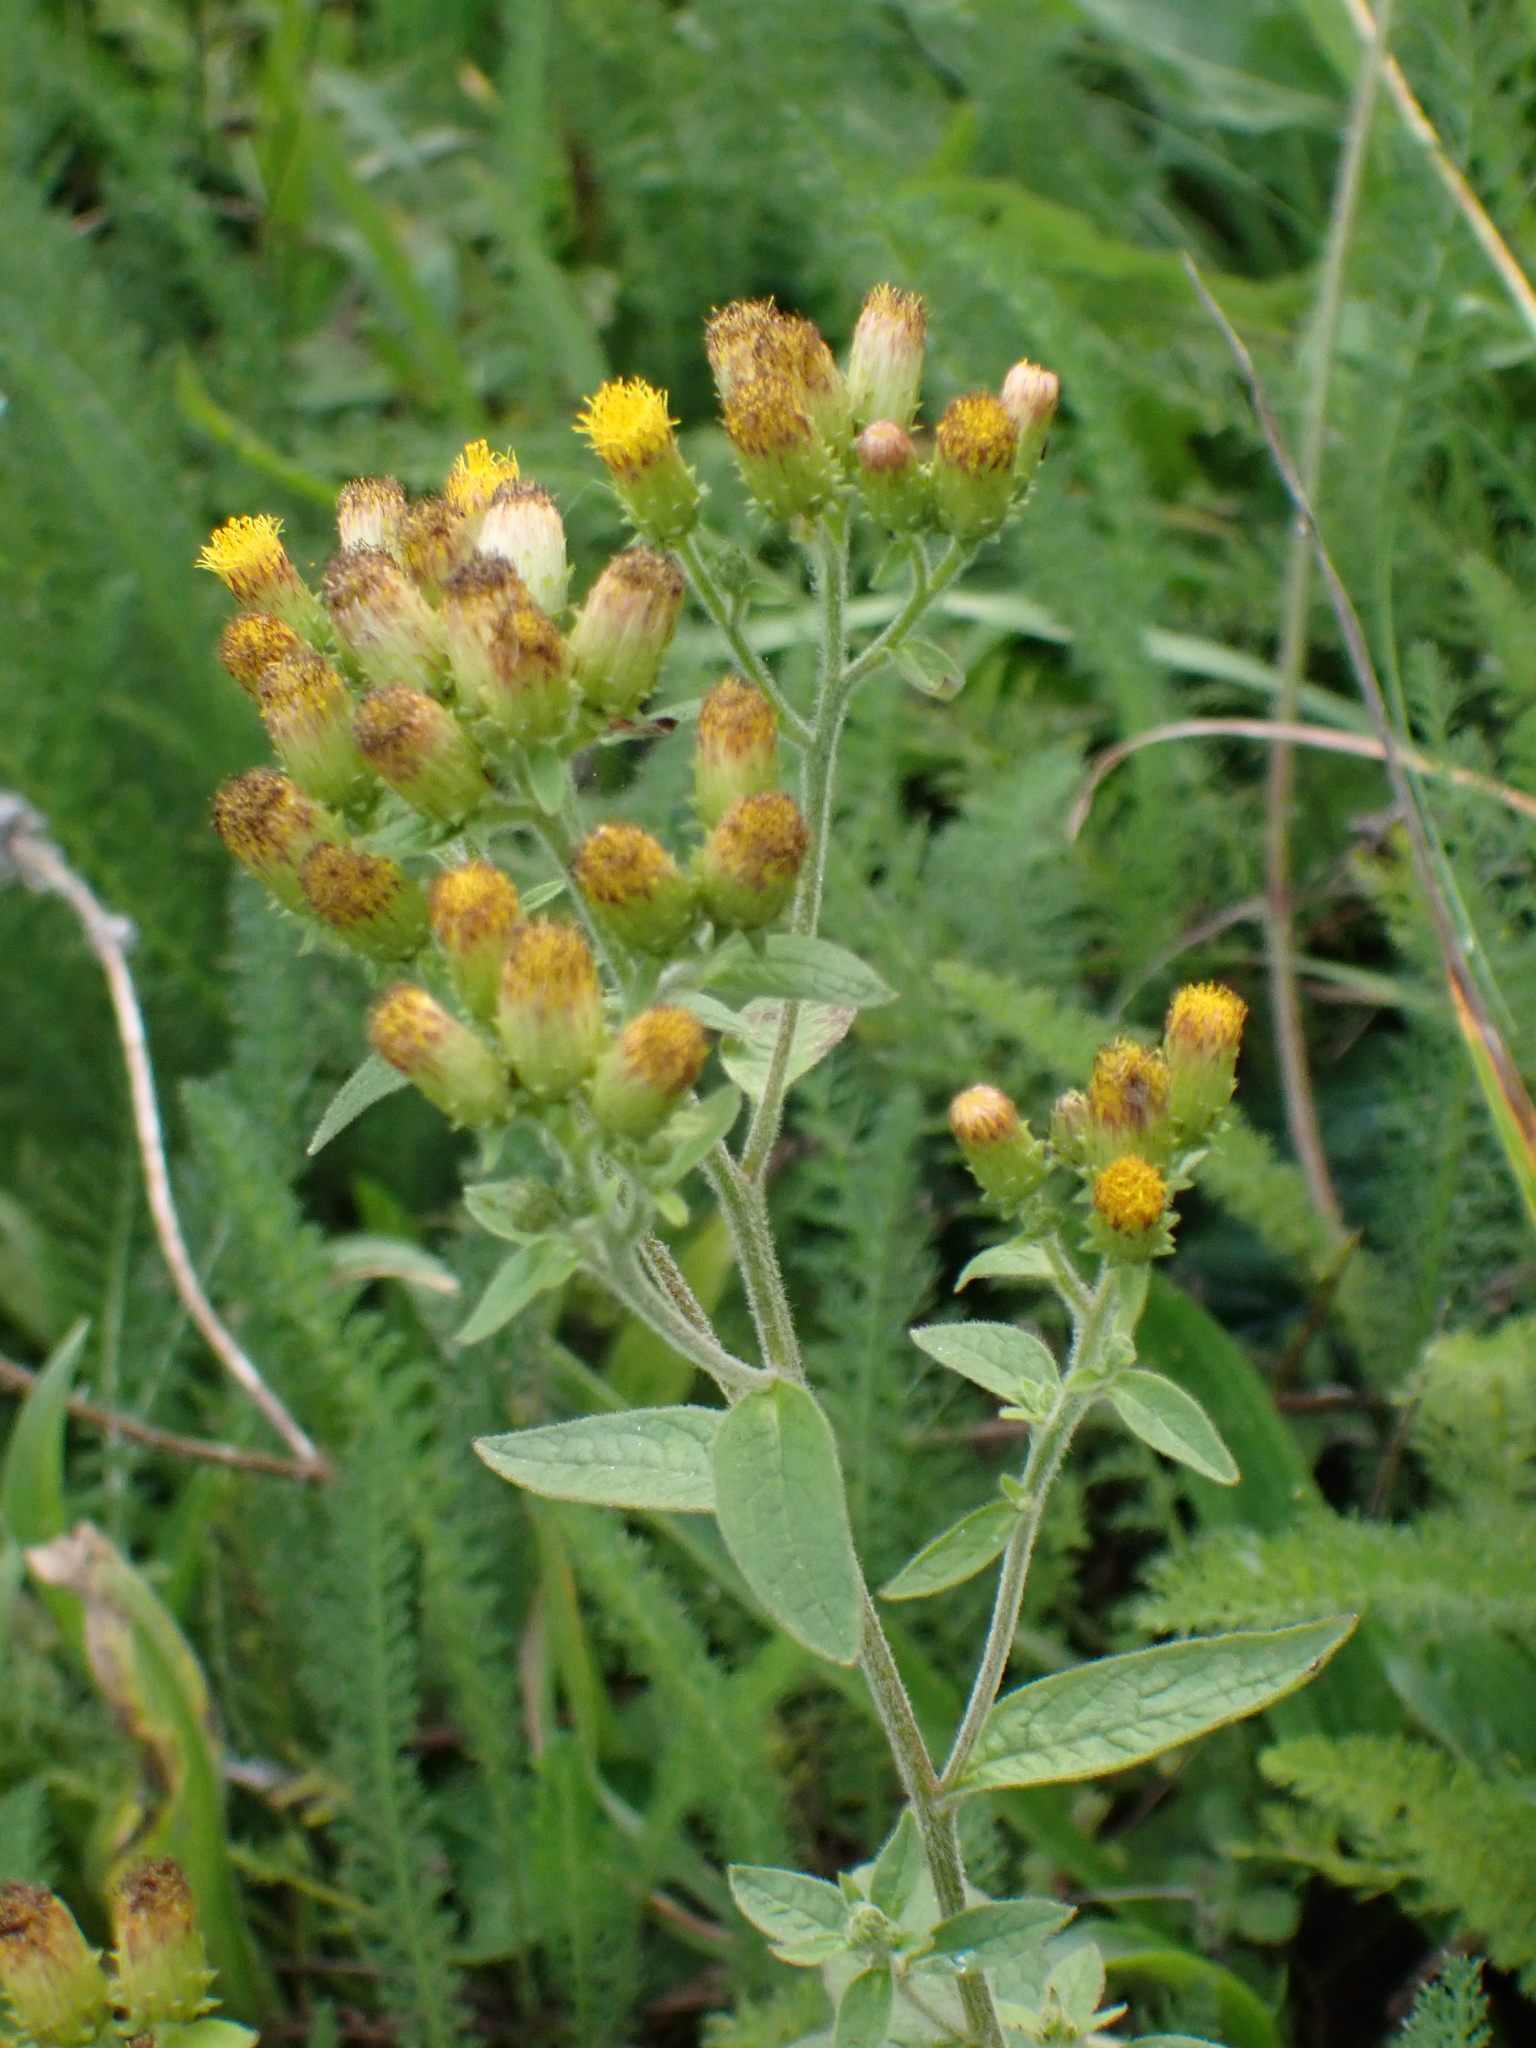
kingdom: Plantae
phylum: Tracheophyta
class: Magnoliopsida
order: Asterales
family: Asteraceae
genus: Pentanema
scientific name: Pentanema squarrosum
